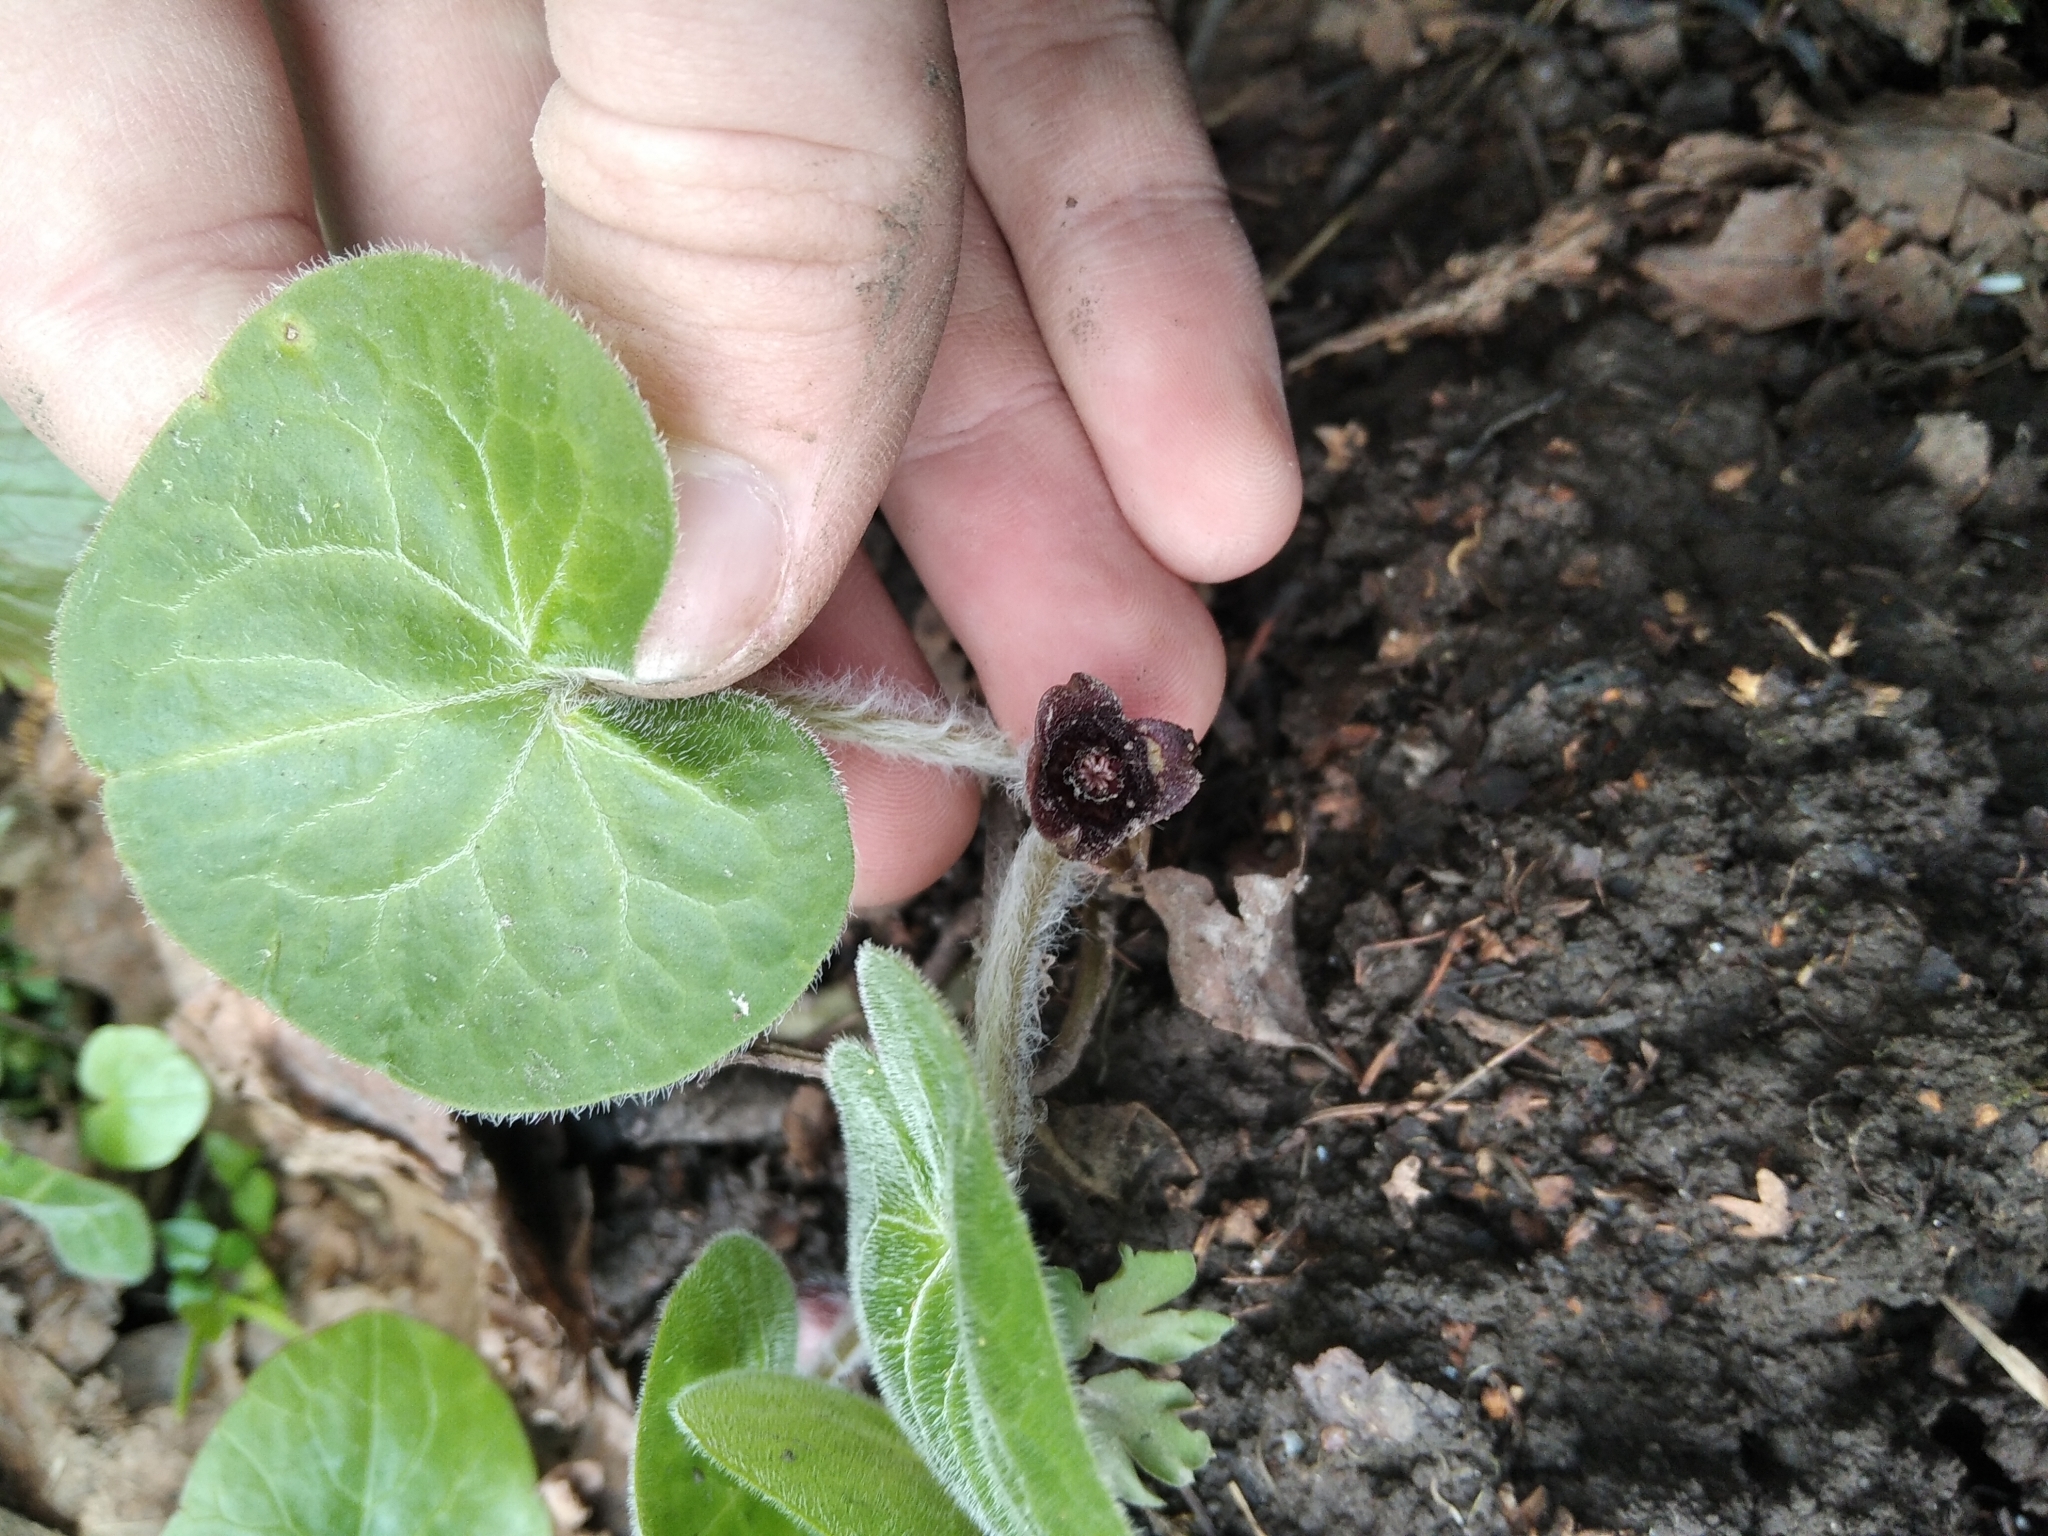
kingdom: Plantae
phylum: Tracheophyta
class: Magnoliopsida
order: Piperales
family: Aristolochiaceae
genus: Asarum
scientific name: Asarum europaeum
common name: Asarabacca
